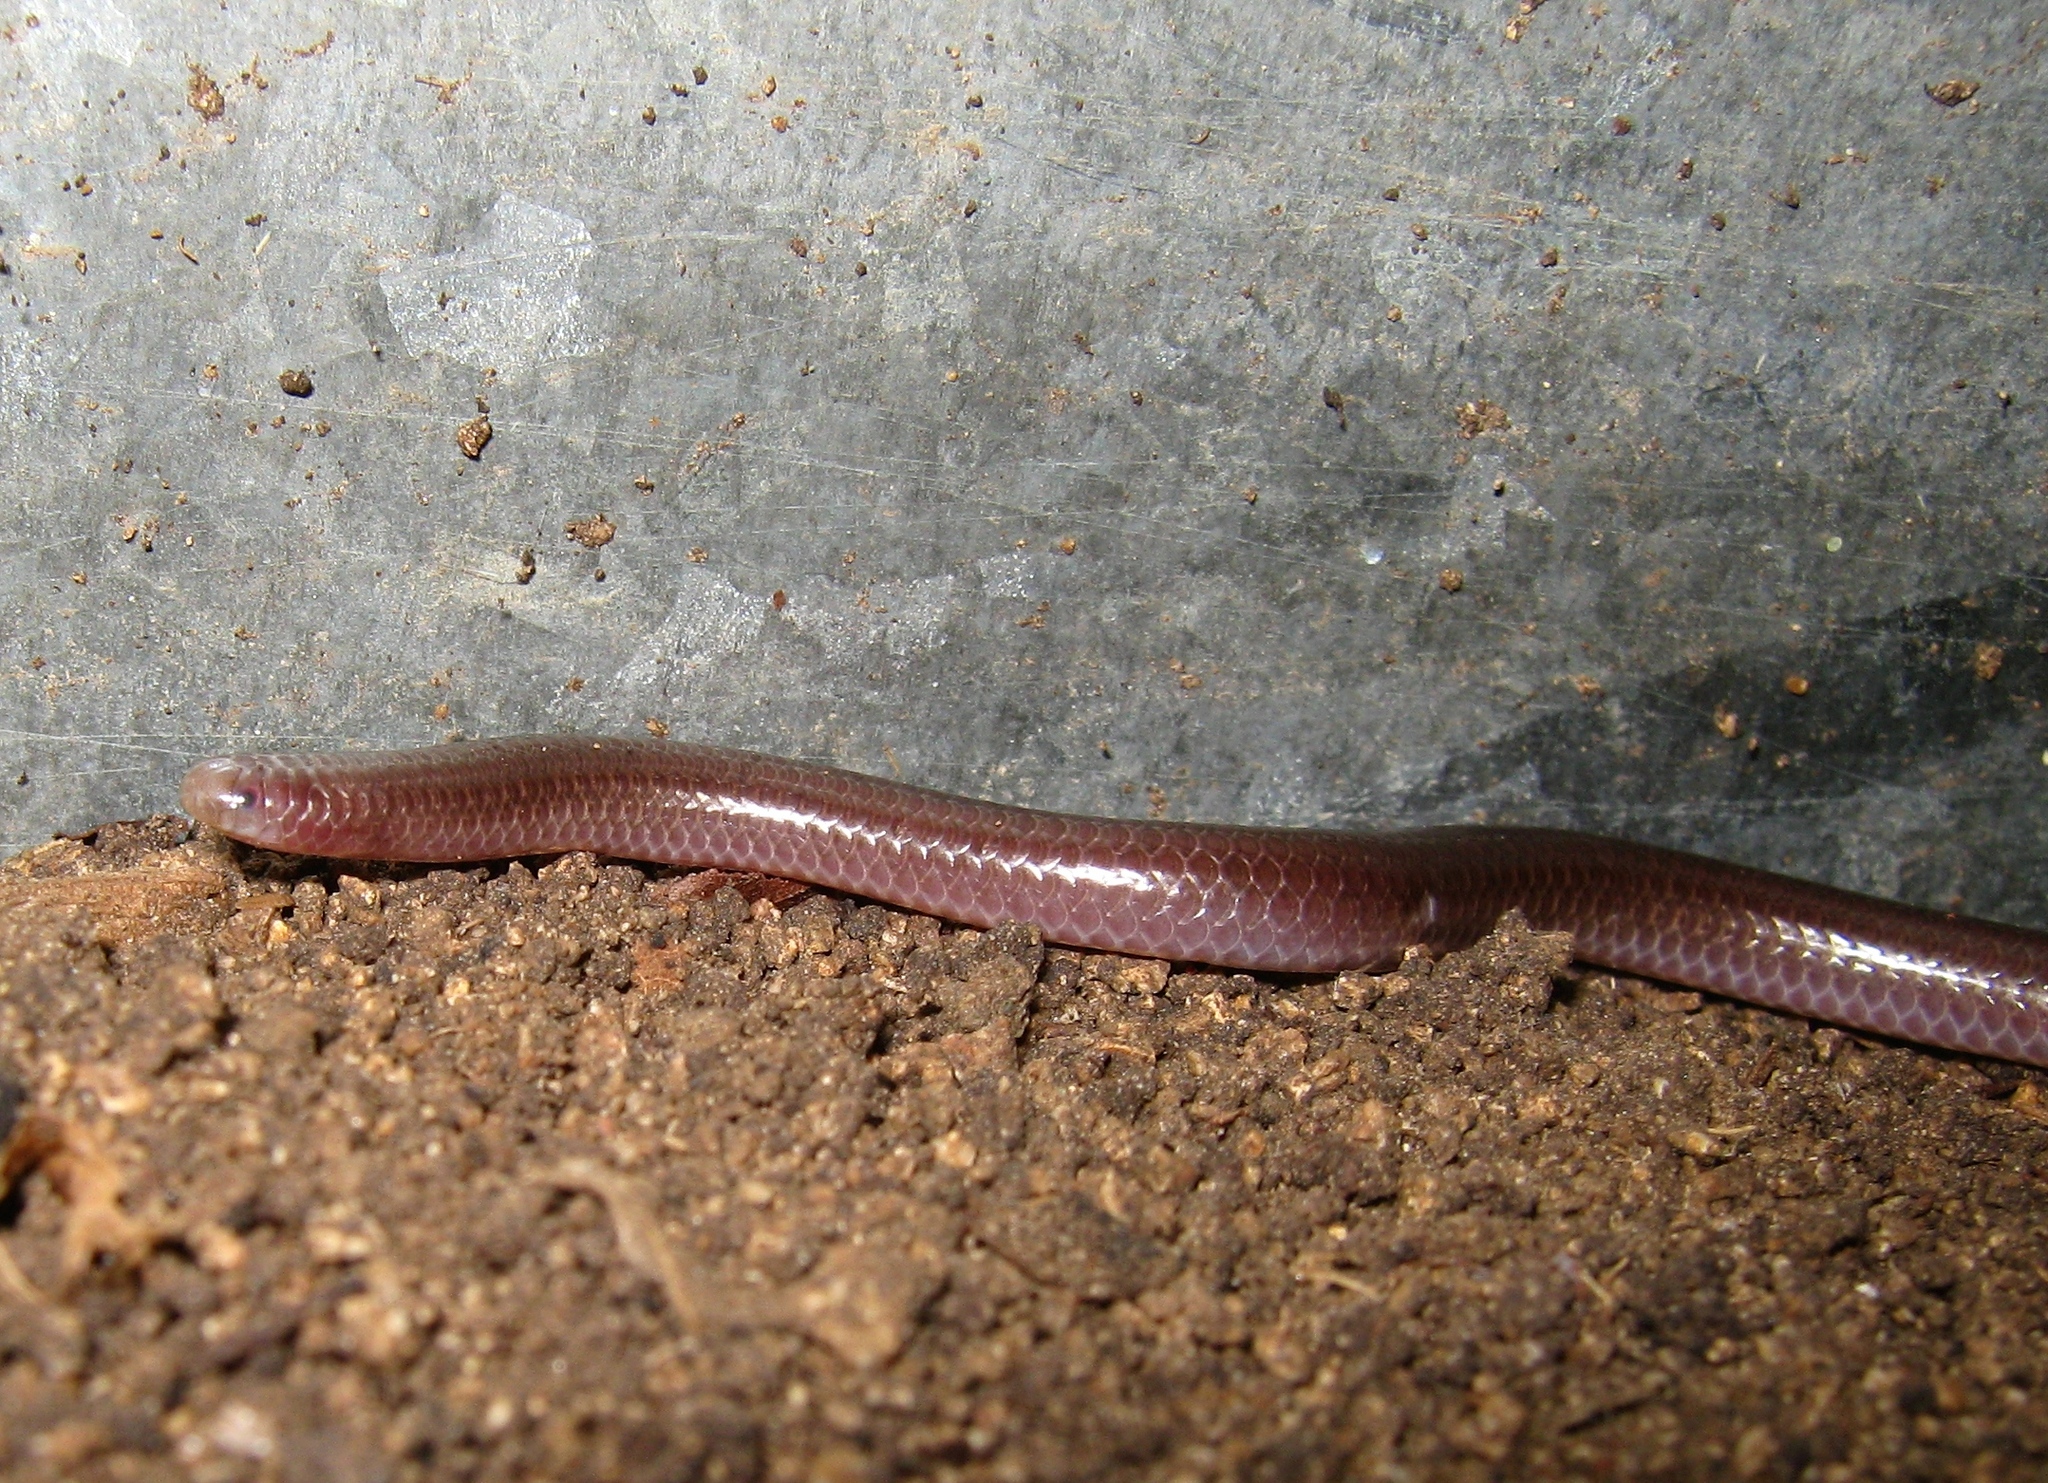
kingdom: Animalia
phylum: Chordata
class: Squamata
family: Leptotyphlopidae
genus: Rena
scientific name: Rena humilis
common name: Western threadsnake
